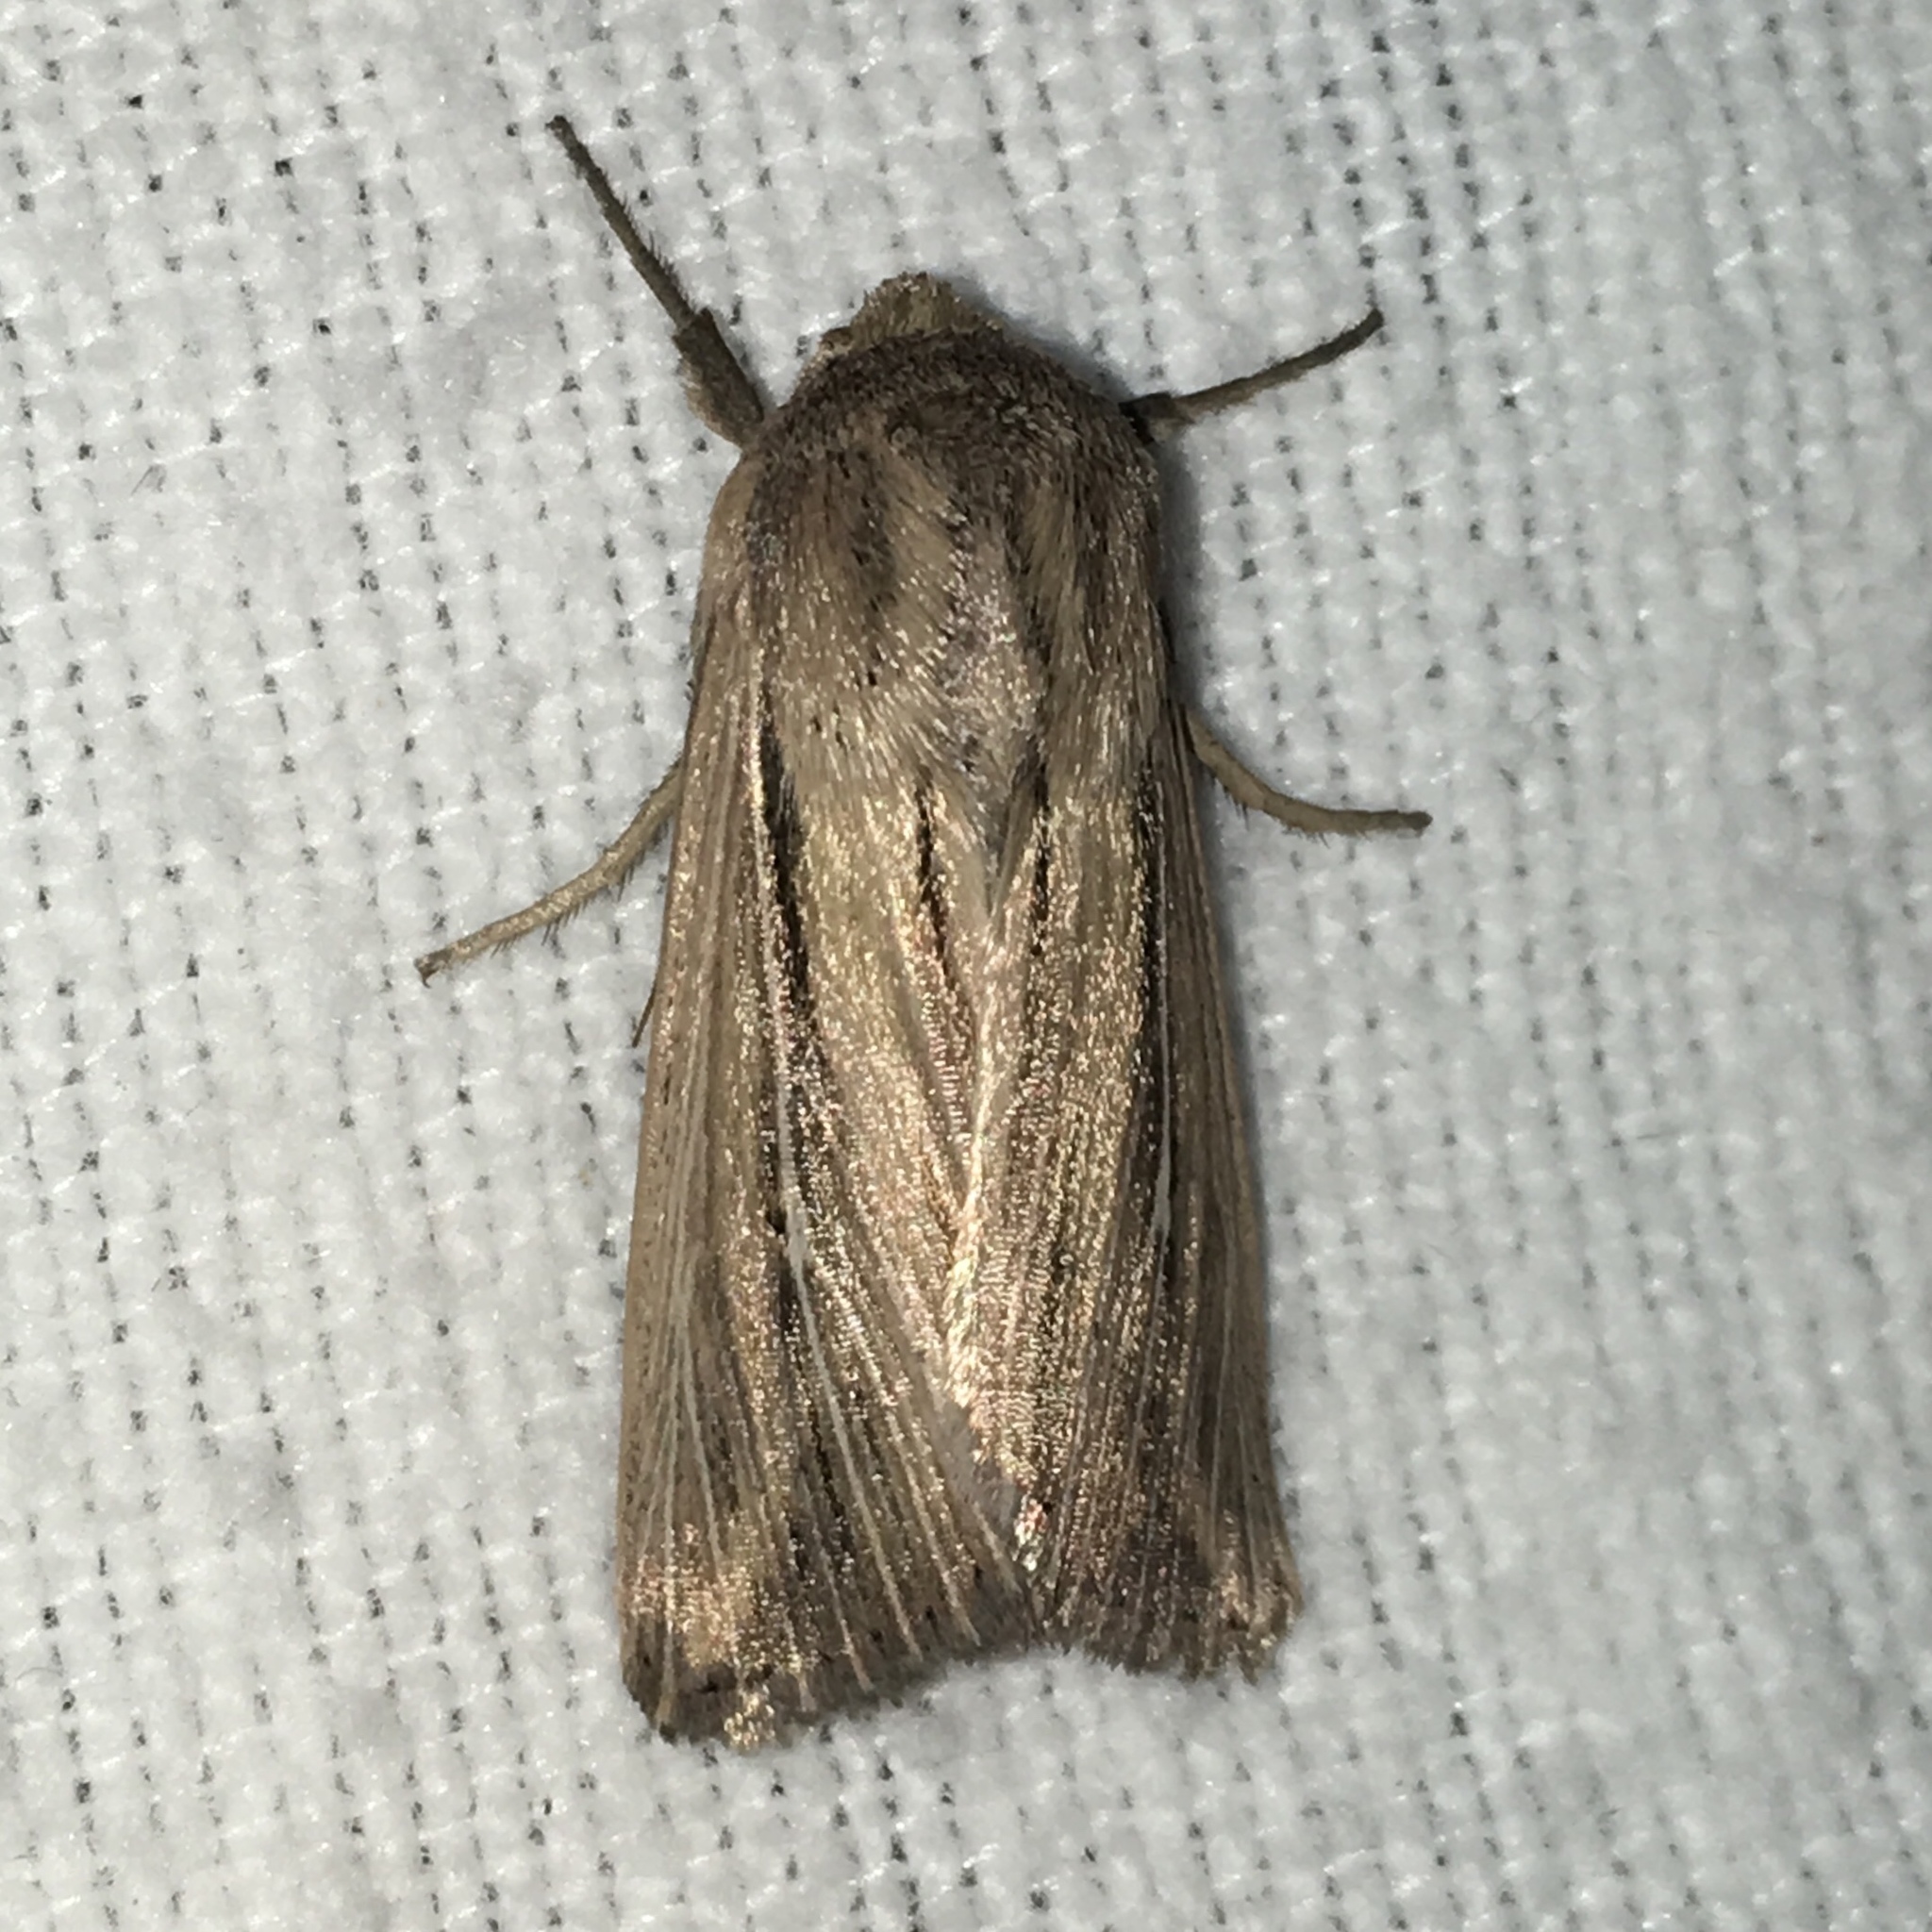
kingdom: Animalia
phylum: Arthropoda
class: Insecta
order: Lepidoptera
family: Noctuidae
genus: Leucania
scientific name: Leucania commoides
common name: Two-lined wainscot
